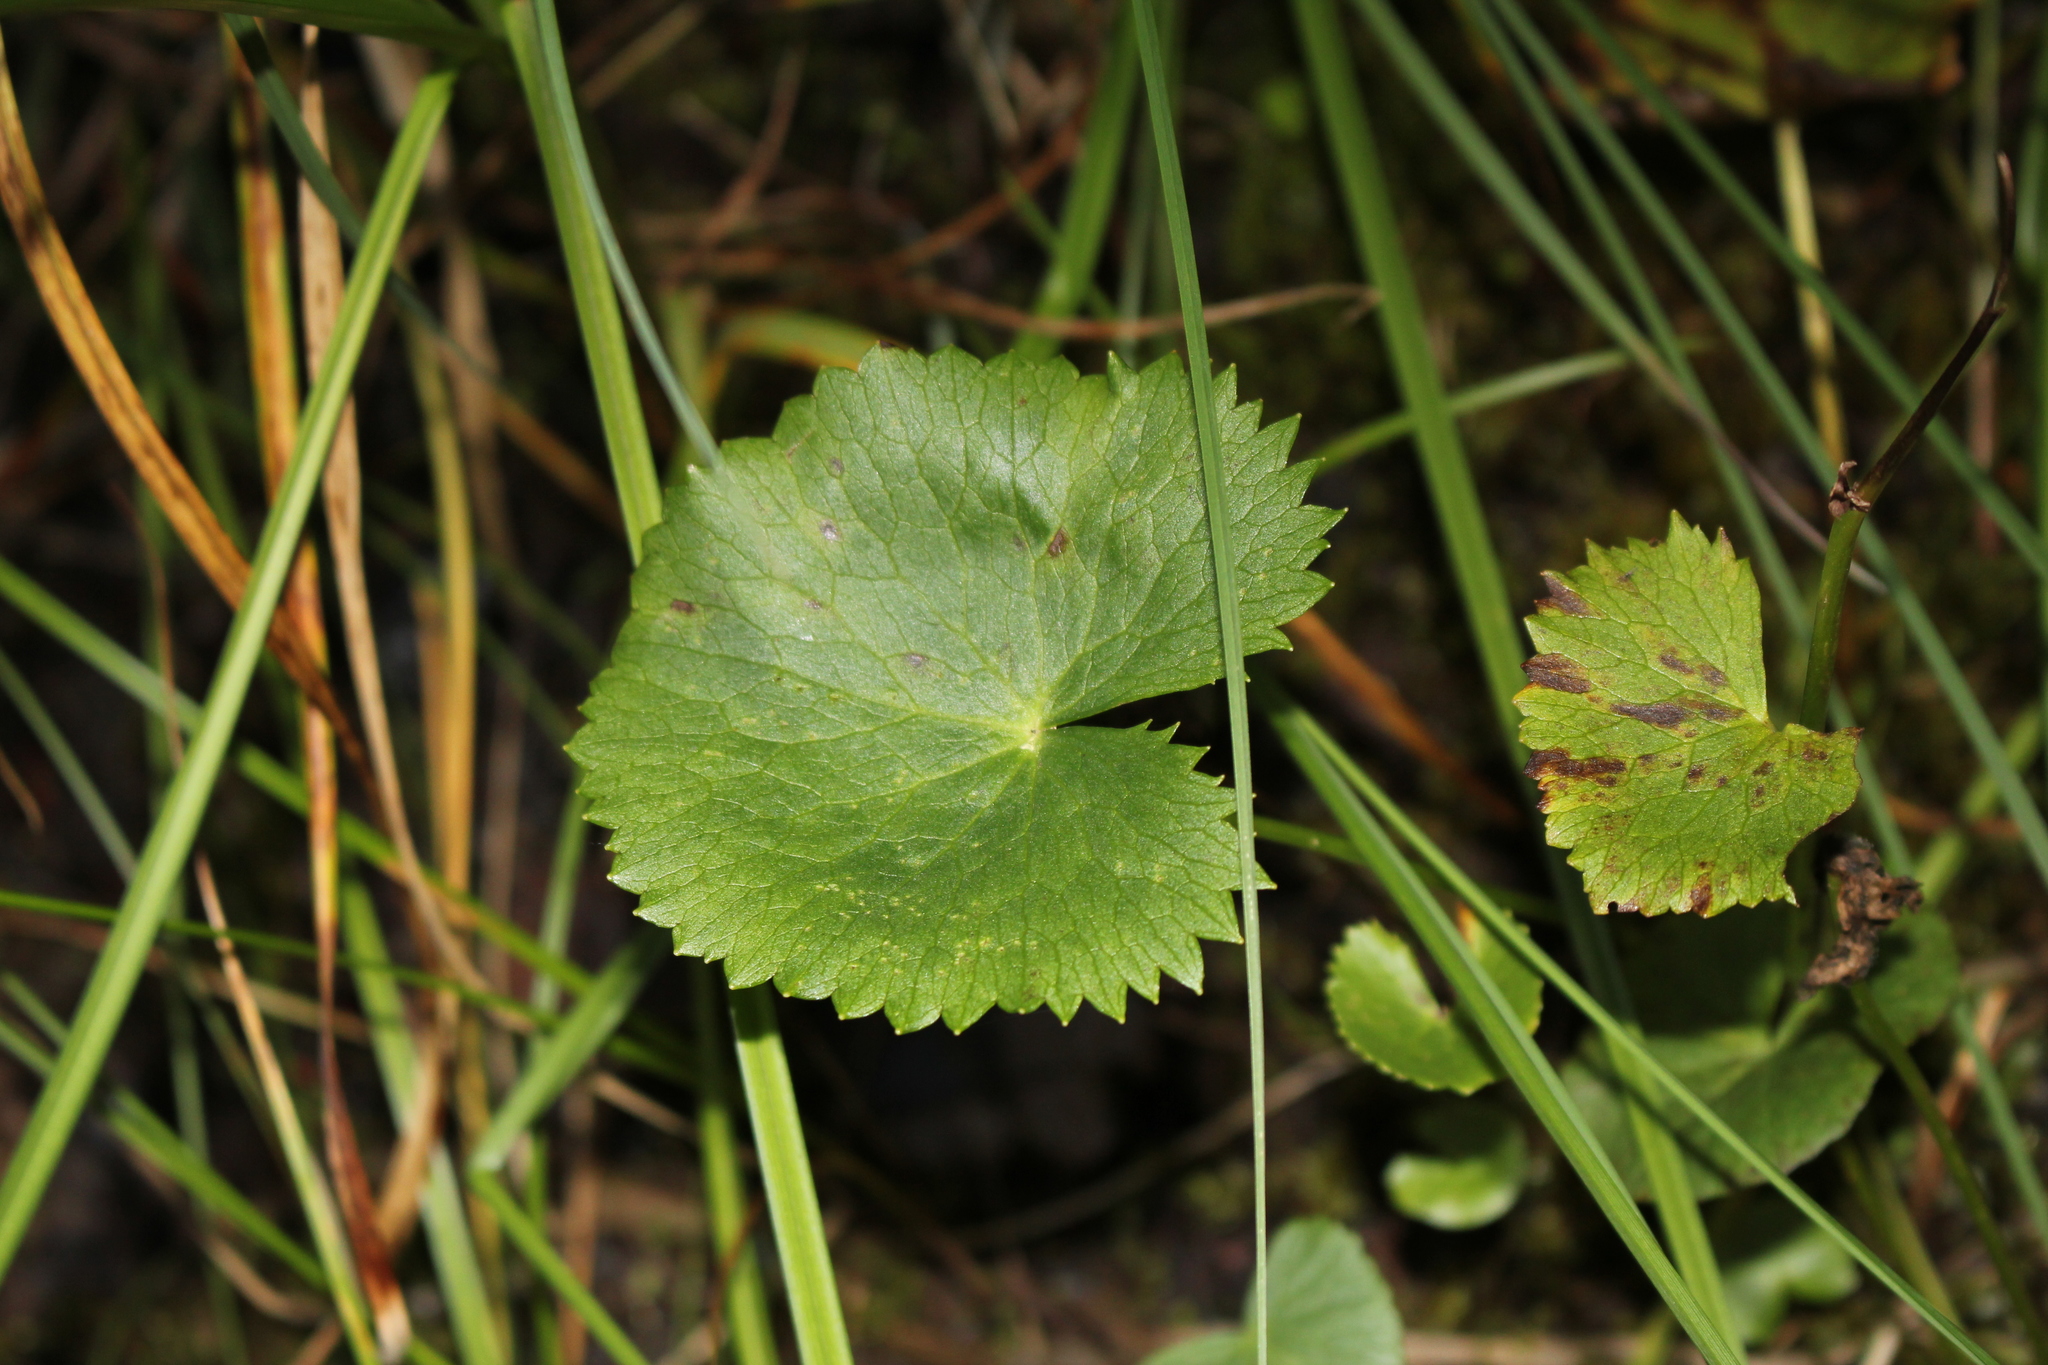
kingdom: Plantae
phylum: Tracheophyta
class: Magnoliopsida
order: Ranunculales
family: Ranunculaceae
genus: Caltha
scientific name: Caltha palustris
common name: Marsh marigold
